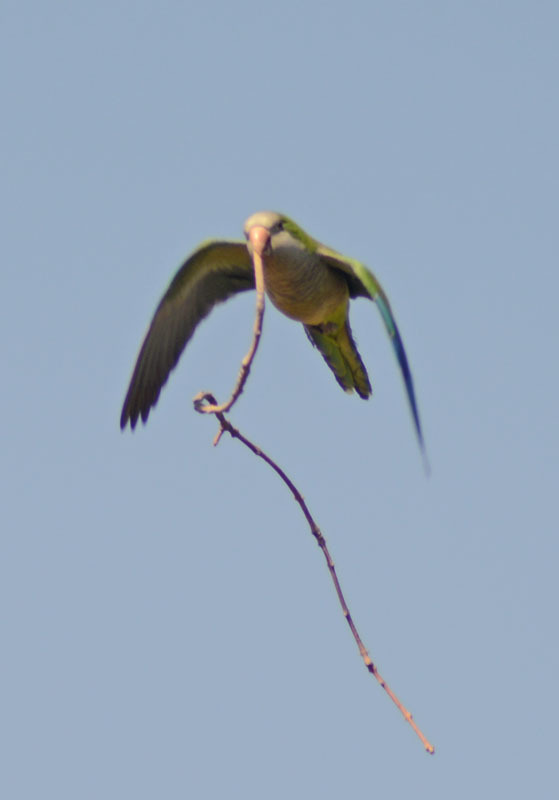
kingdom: Animalia
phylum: Chordata
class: Aves
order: Psittaciformes
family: Psittacidae
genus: Myiopsitta
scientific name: Myiopsitta monachus
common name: Monk parakeet
